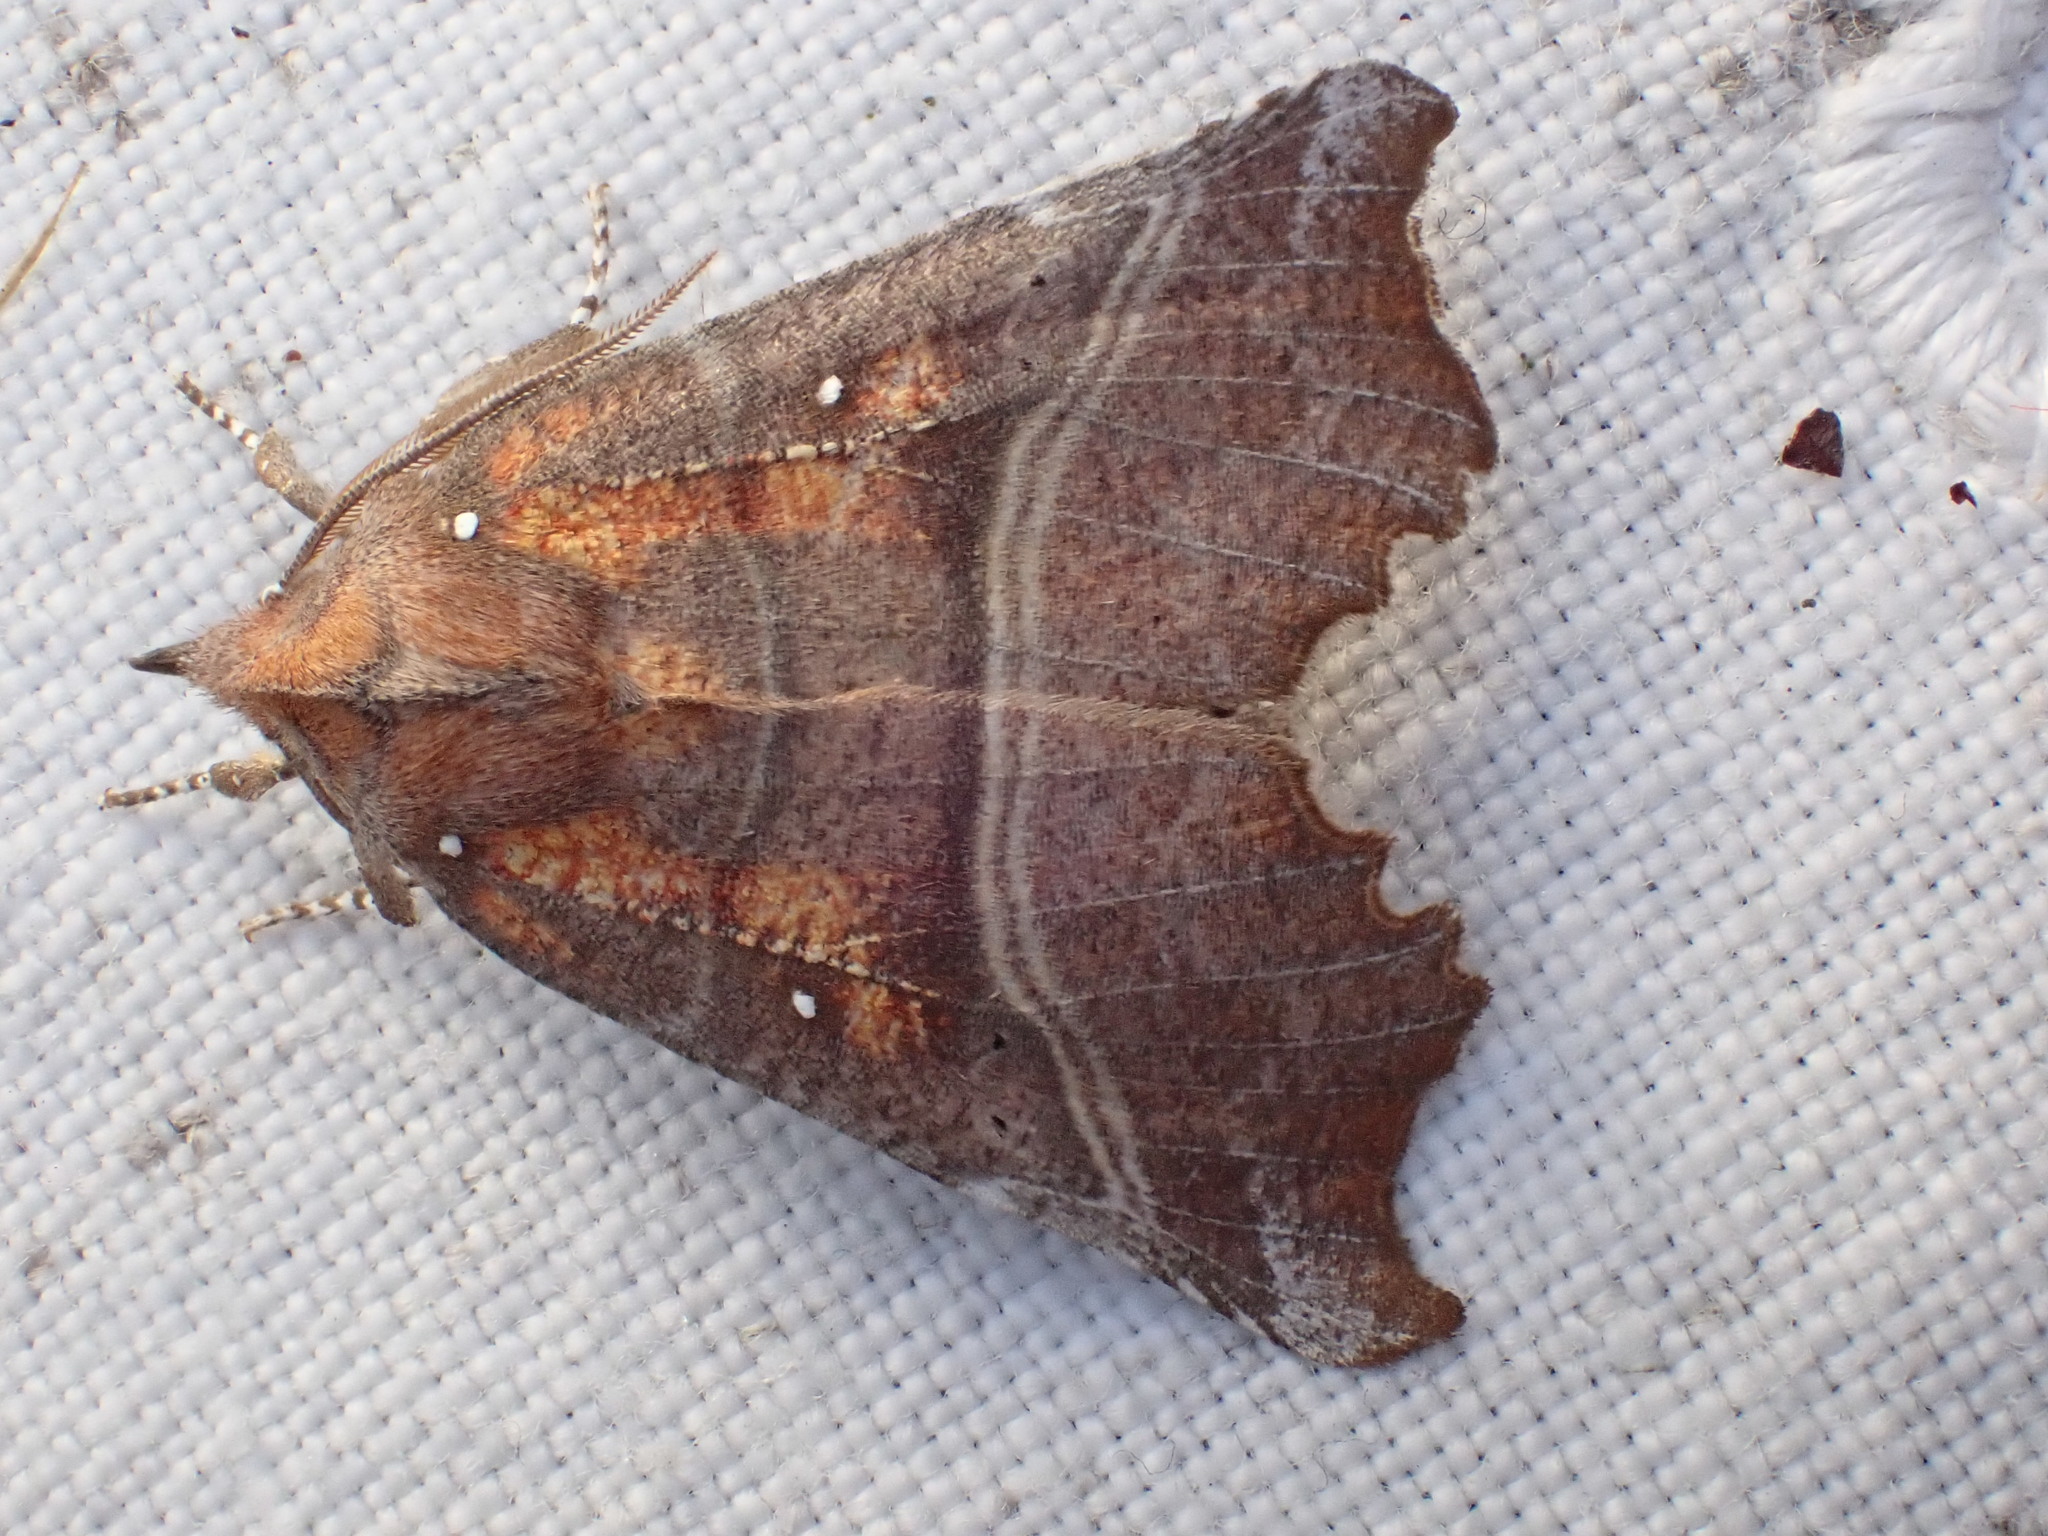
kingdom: Animalia
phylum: Arthropoda
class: Insecta
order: Lepidoptera
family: Erebidae
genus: Scoliopteryx
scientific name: Scoliopteryx libatrix
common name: Herald
